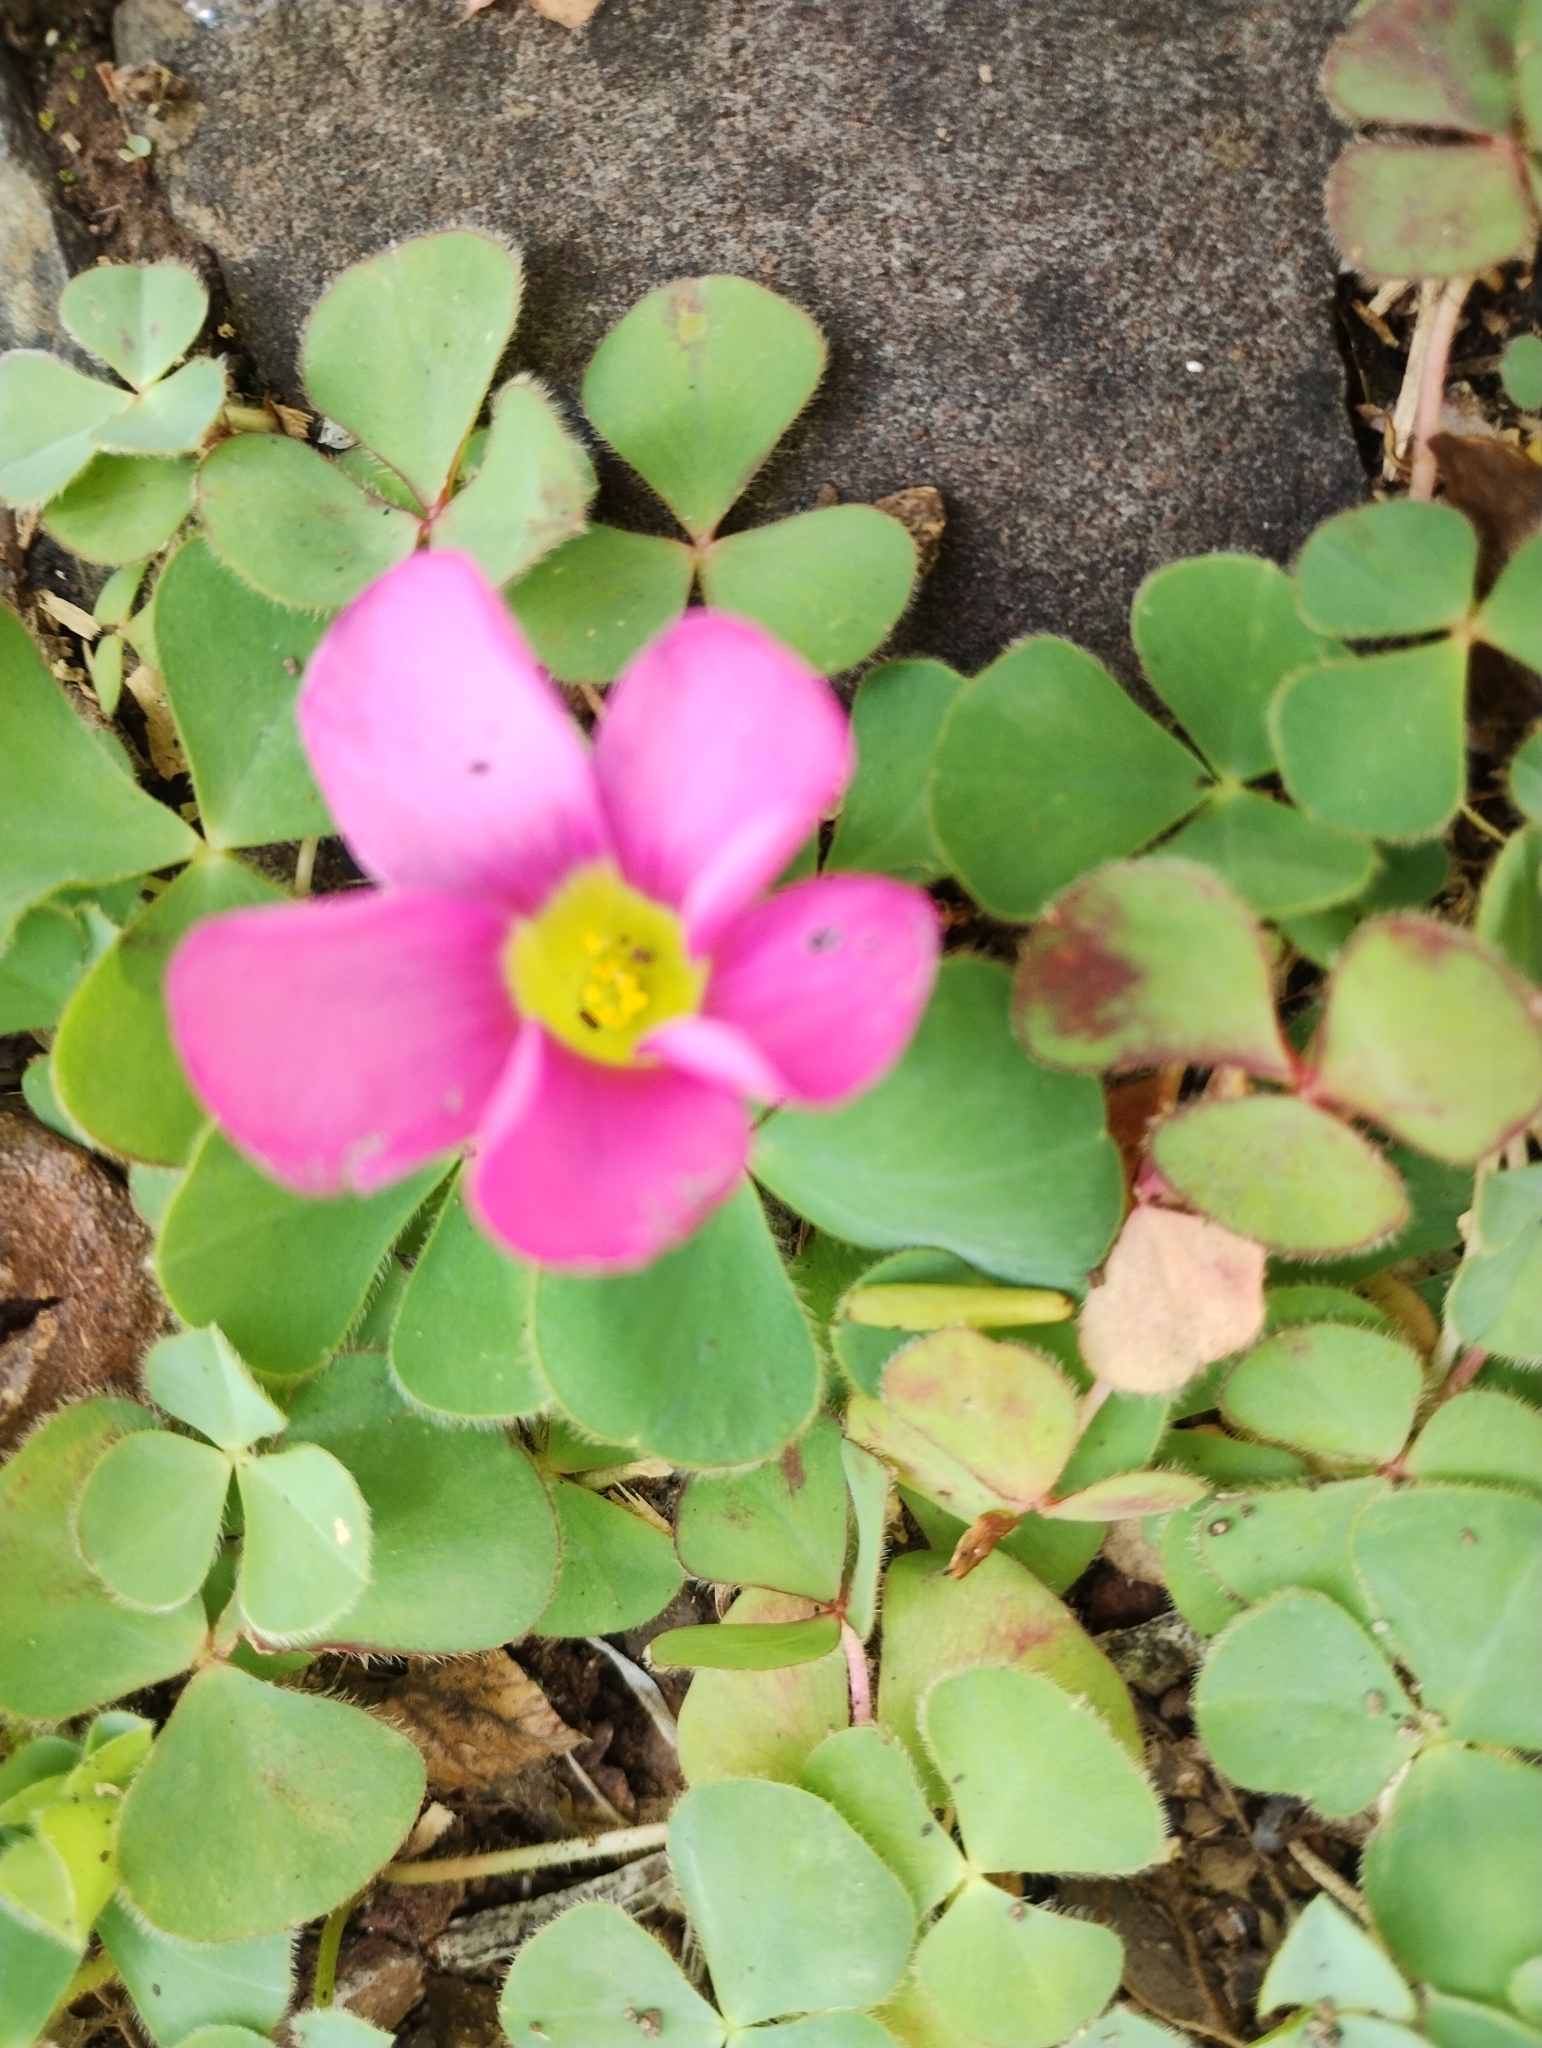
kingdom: Plantae
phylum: Tracheophyta
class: Magnoliopsida
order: Oxalidales
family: Oxalidaceae
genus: Oxalis
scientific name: Oxalis purpurea
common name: Purple woodsorrel
